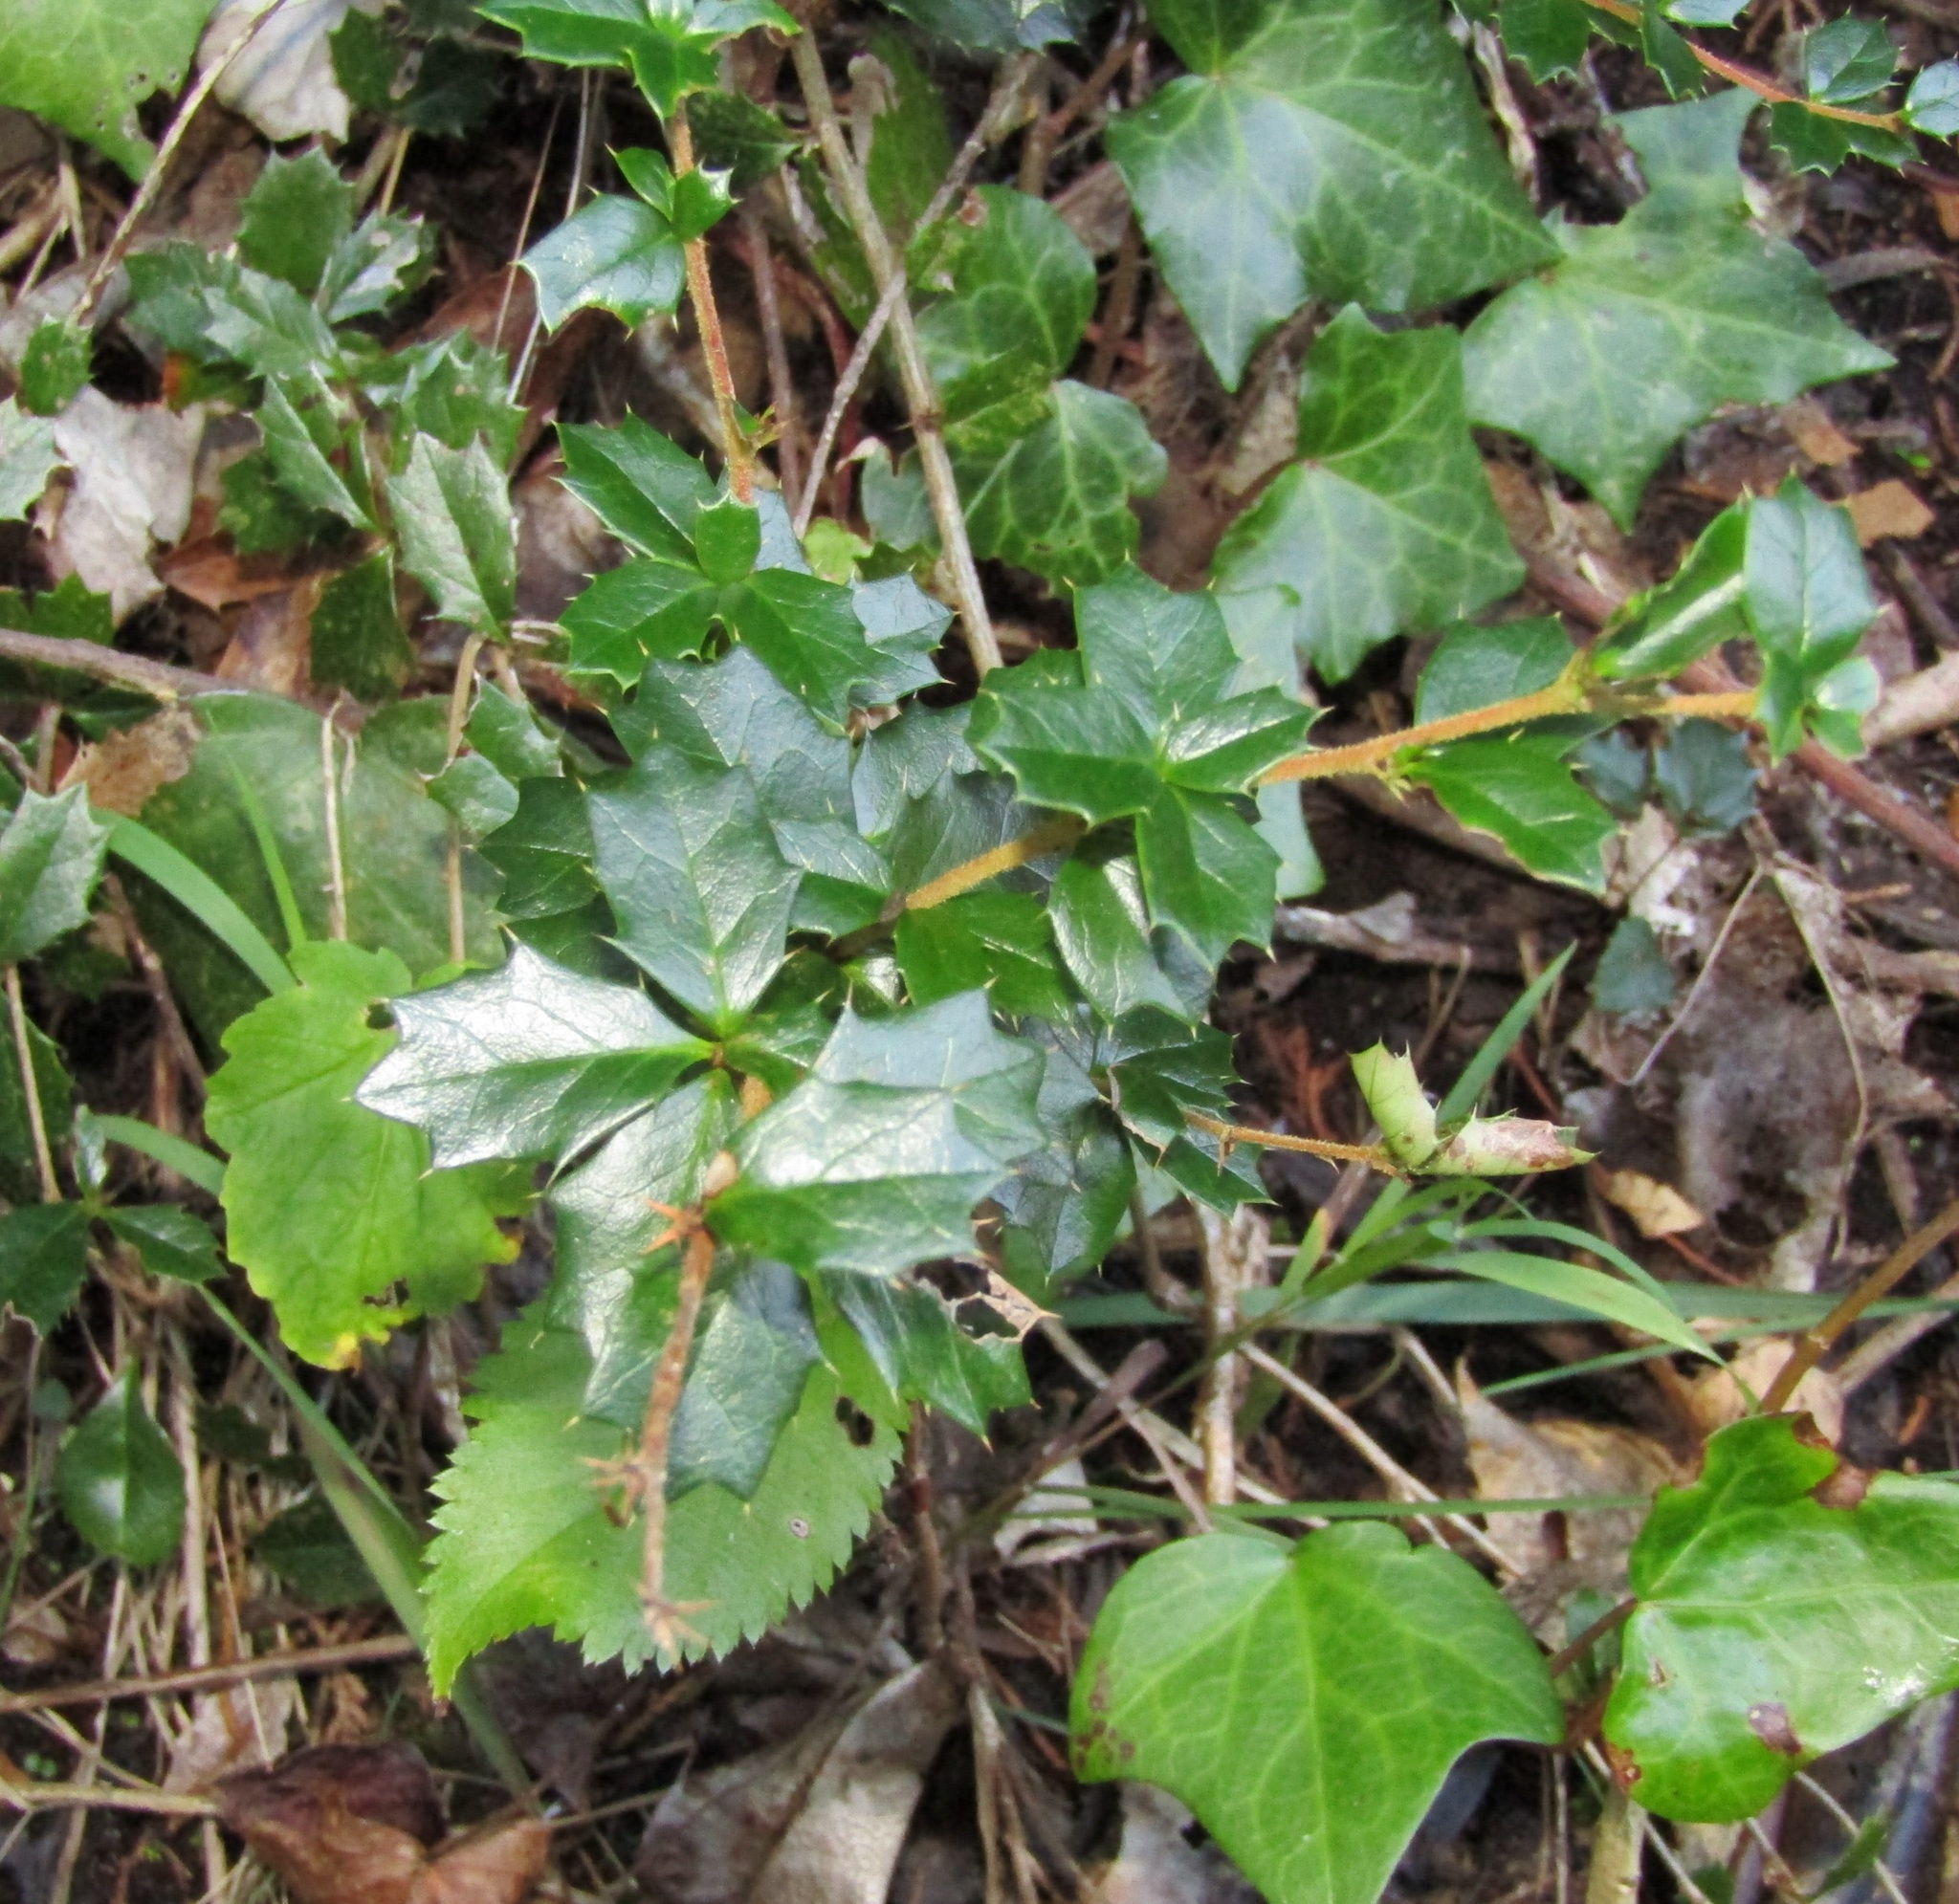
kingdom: Plantae
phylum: Tracheophyta
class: Magnoliopsida
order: Ranunculales
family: Berberidaceae
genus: Berberis
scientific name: Berberis darwinii
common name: Darwin's barberry
